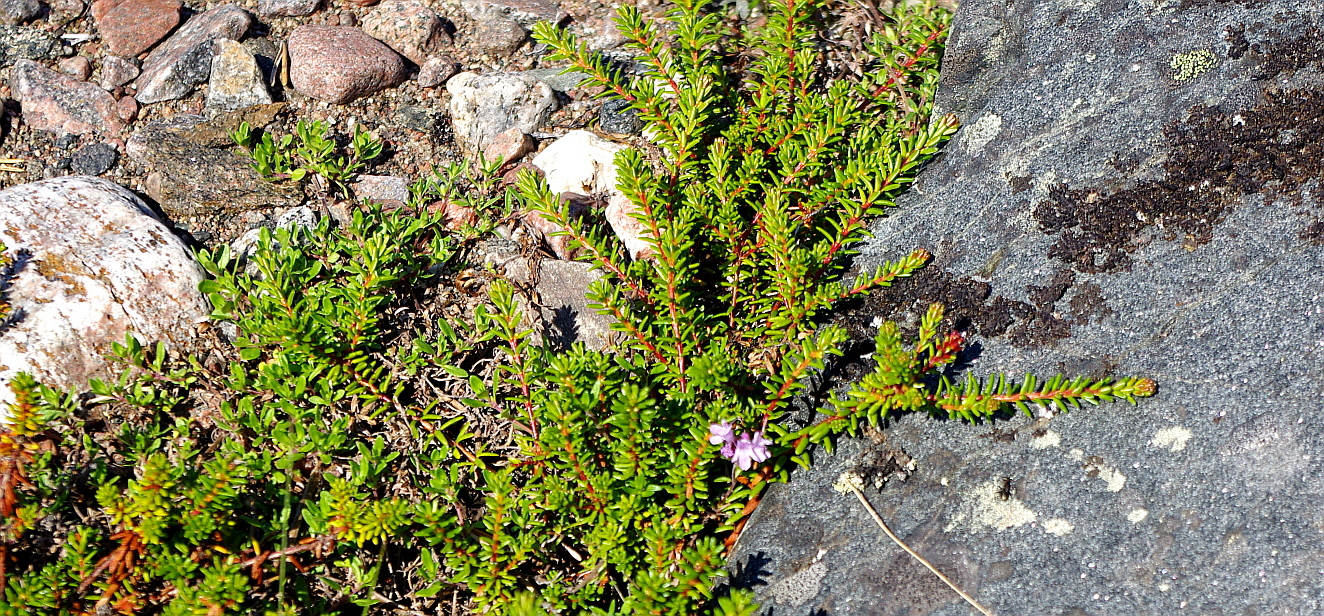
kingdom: Plantae
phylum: Tracheophyta
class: Magnoliopsida
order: Ericales
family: Ericaceae
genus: Empetrum
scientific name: Empetrum nigrum
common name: Black crowberry
